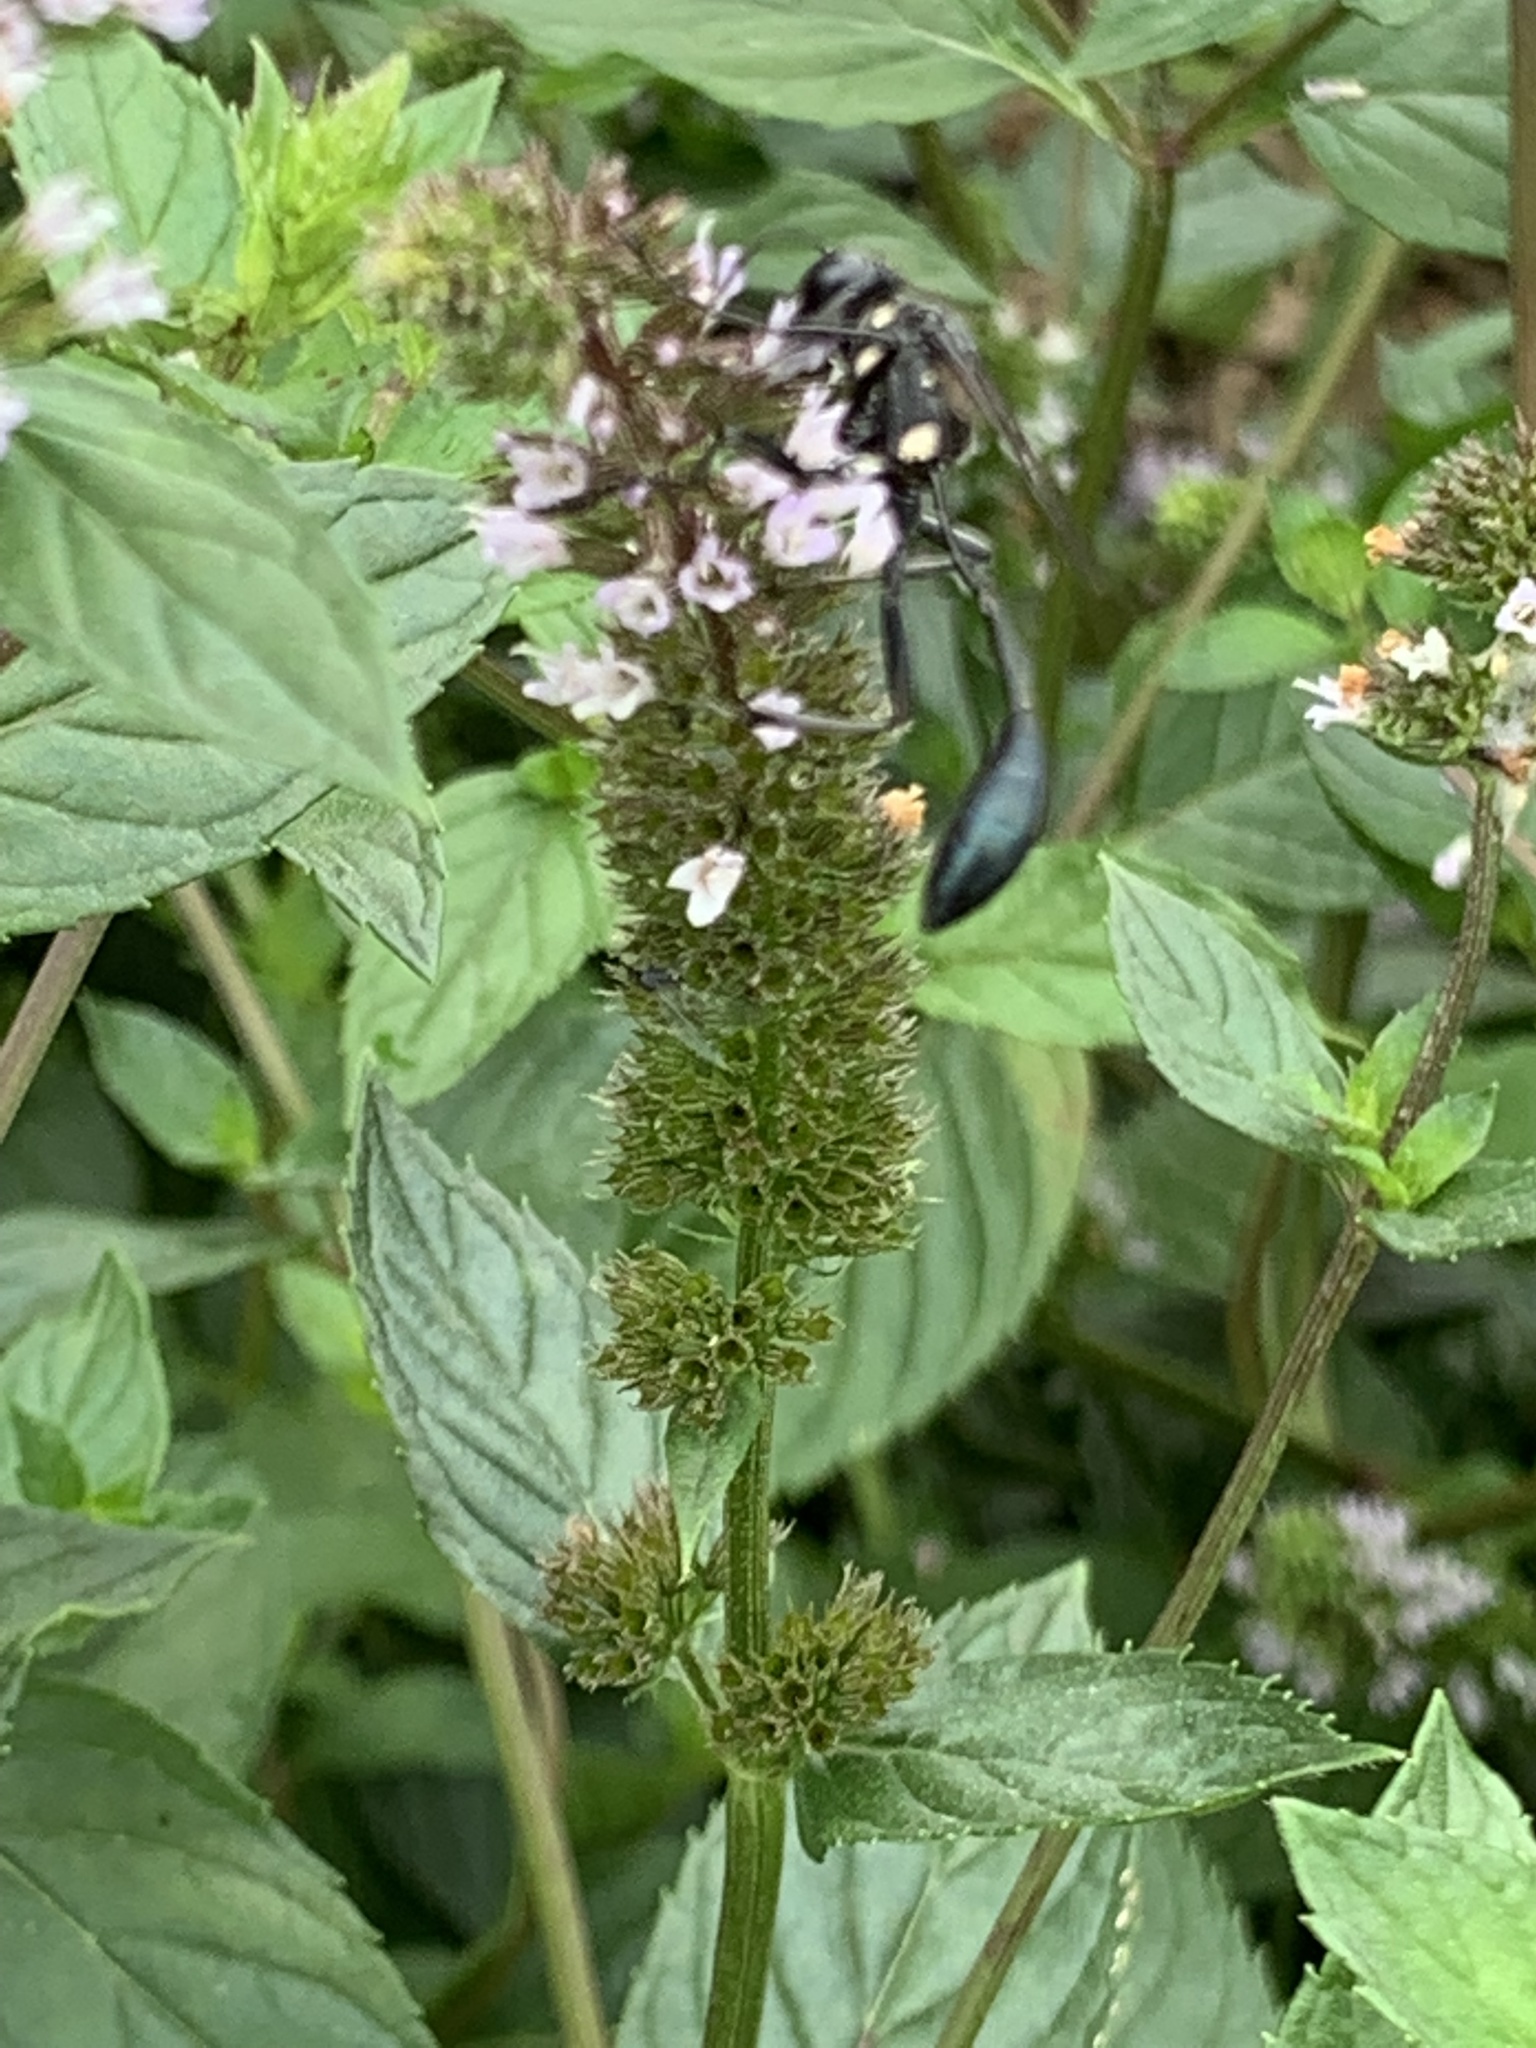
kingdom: Animalia
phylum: Arthropoda
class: Insecta
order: Hymenoptera
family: Sphecidae
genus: Eremnophila
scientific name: Eremnophila aureonotata
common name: Gold-marked thread-waisted wasp
